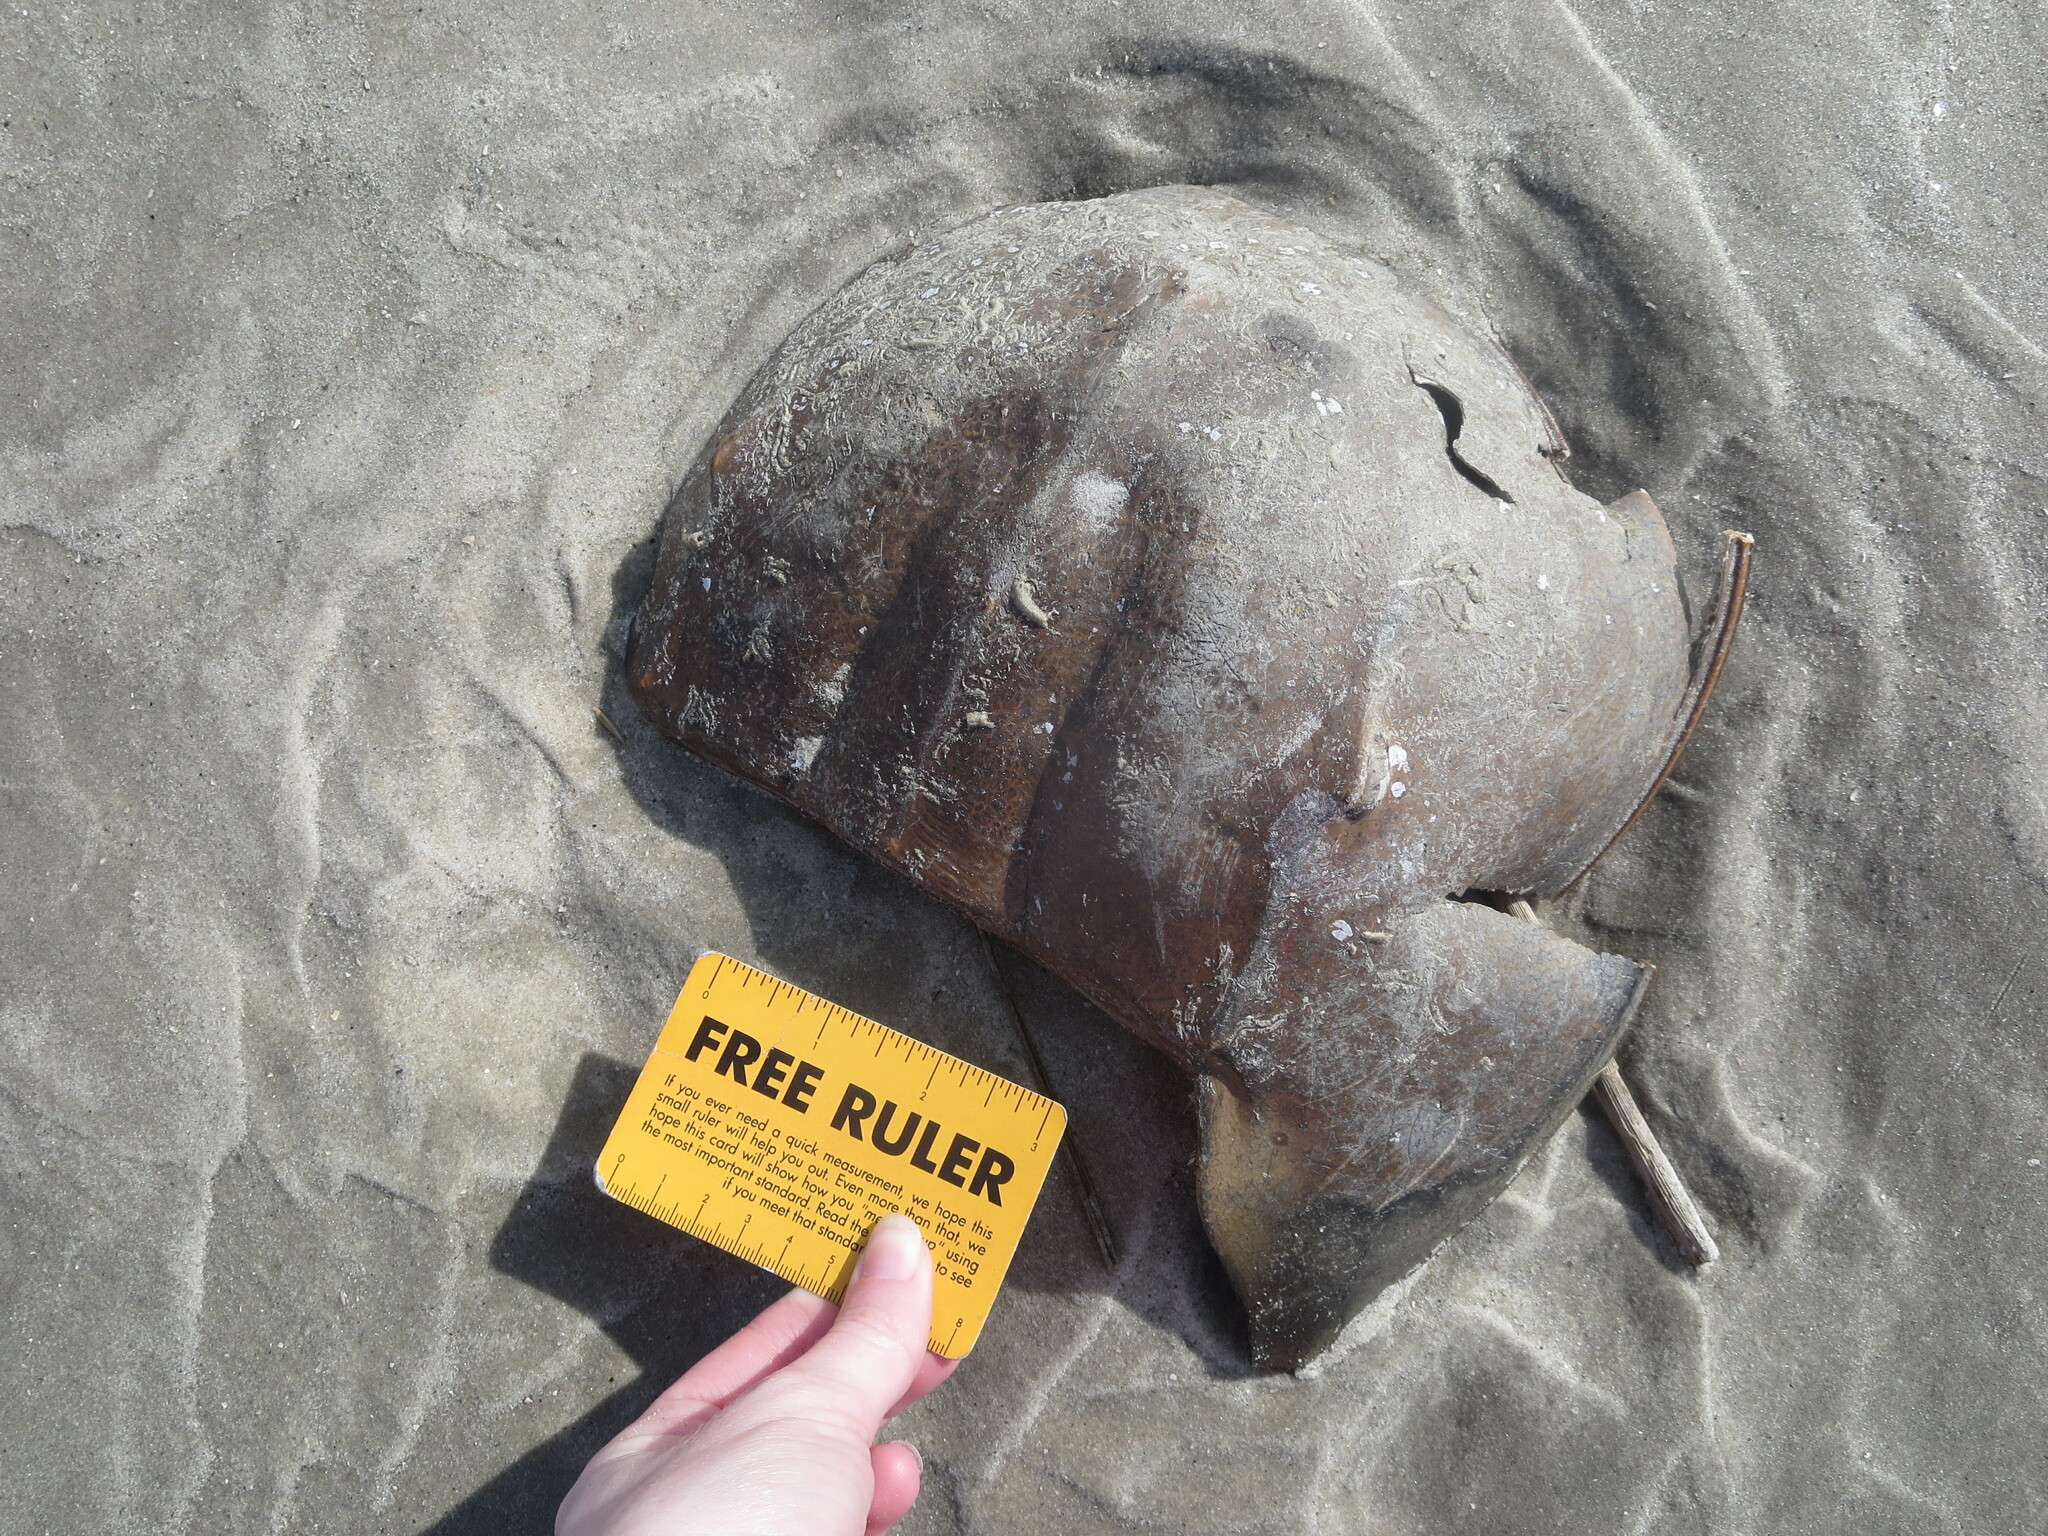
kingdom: Animalia
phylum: Arthropoda
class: Merostomata
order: Xiphosurida
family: Limulidae
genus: Limulus
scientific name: Limulus polyphemus
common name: Horseshoe crab
